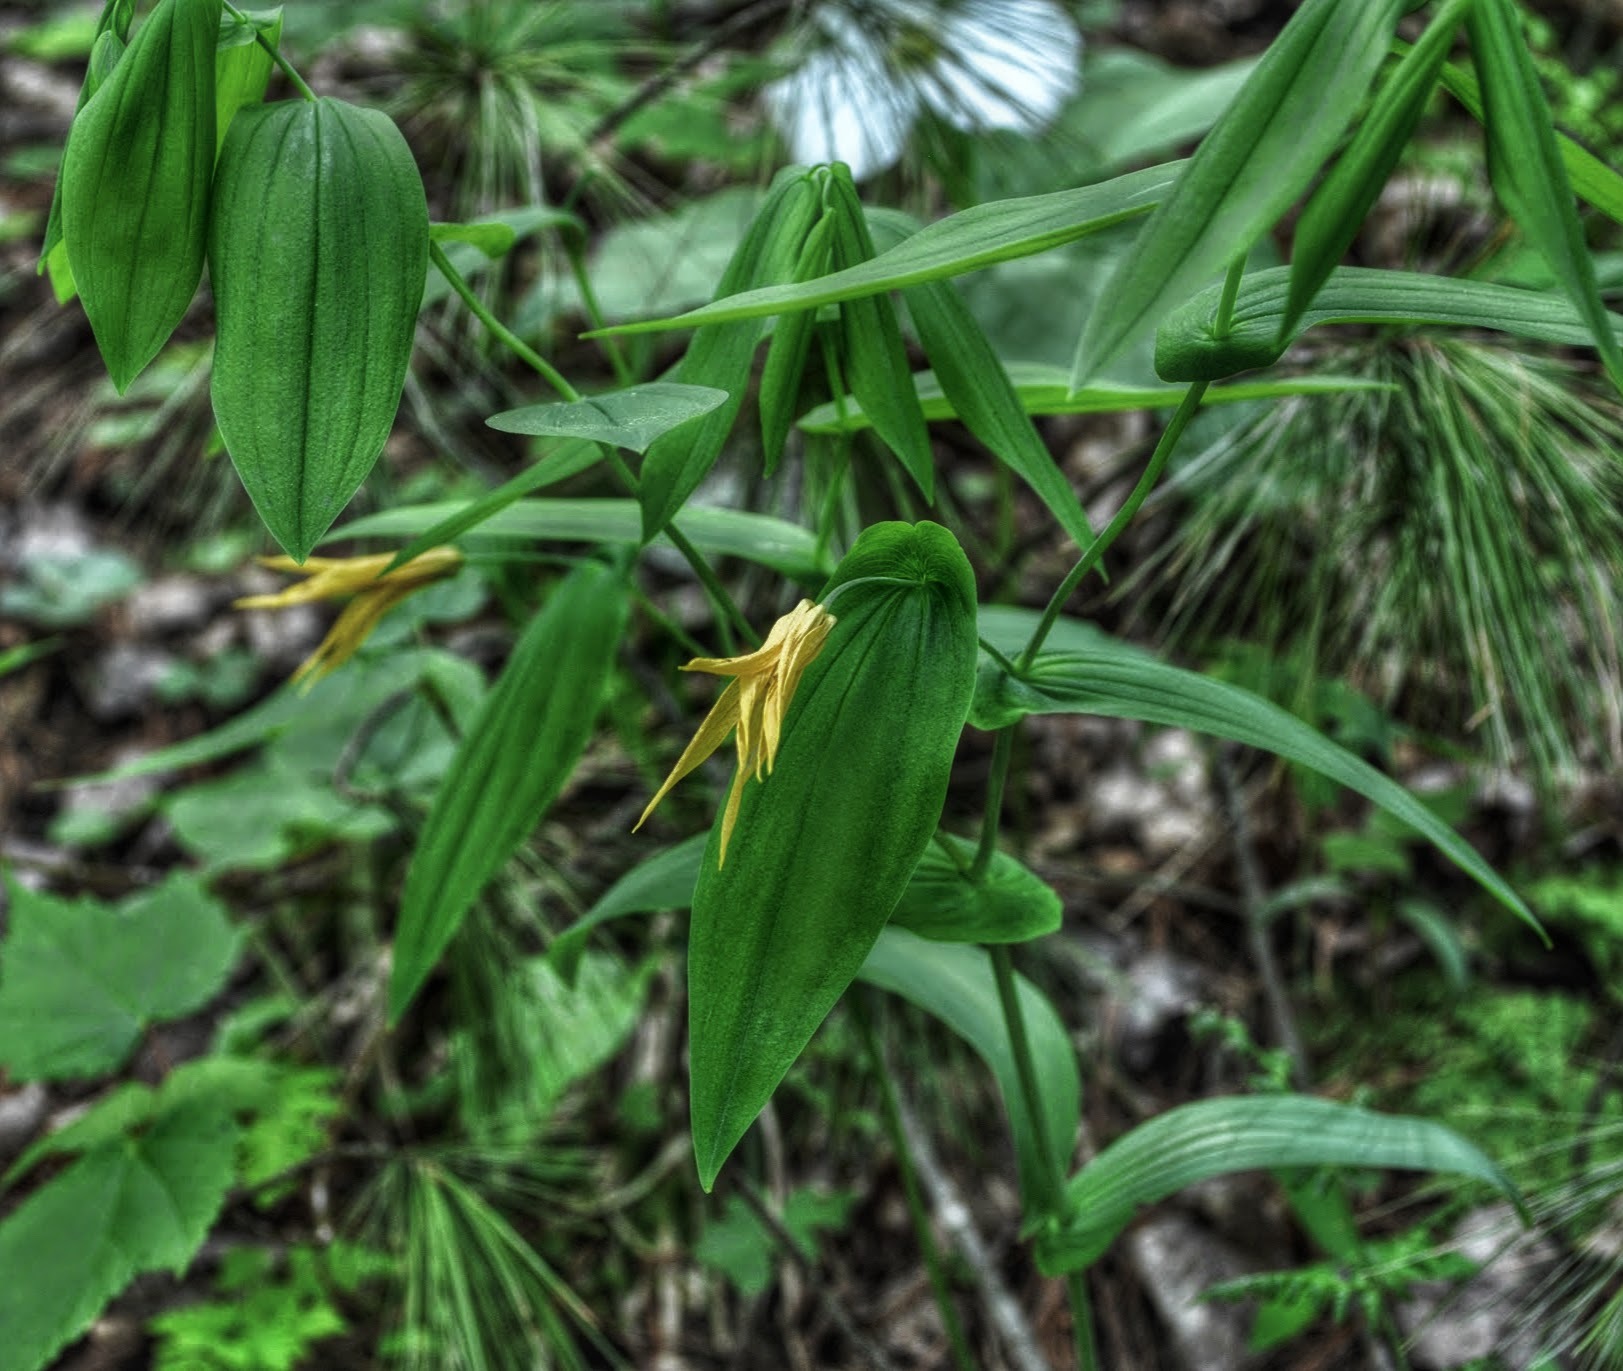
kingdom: Plantae
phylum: Tracheophyta
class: Liliopsida
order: Liliales
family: Colchicaceae
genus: Uvularia
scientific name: Uvularia grandiflora
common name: Bellwort
